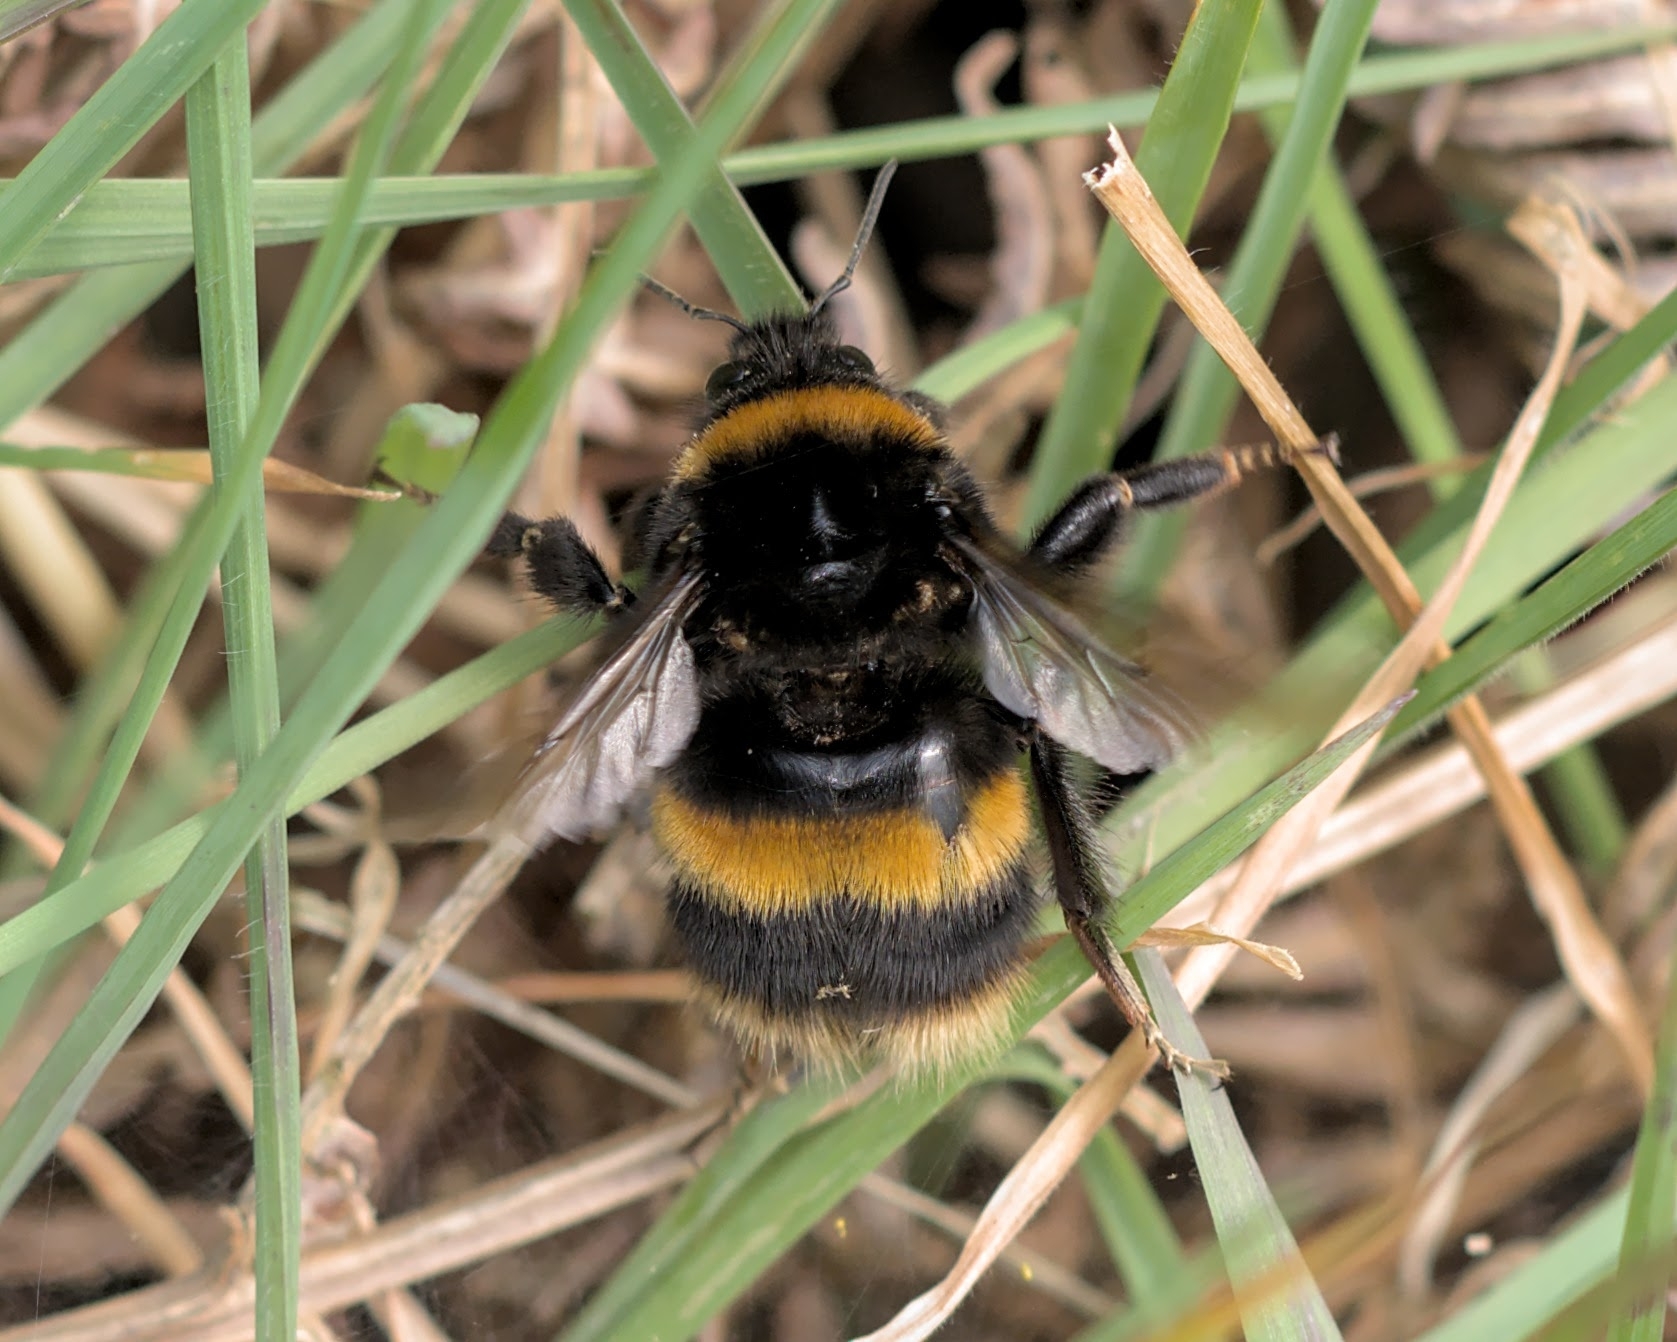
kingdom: Animalia
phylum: Arthropoda
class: Insecta
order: Hymenoptera
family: Apidae
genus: Bombus
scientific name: Bombus terrestris
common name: Buff-tailed bumblebee
